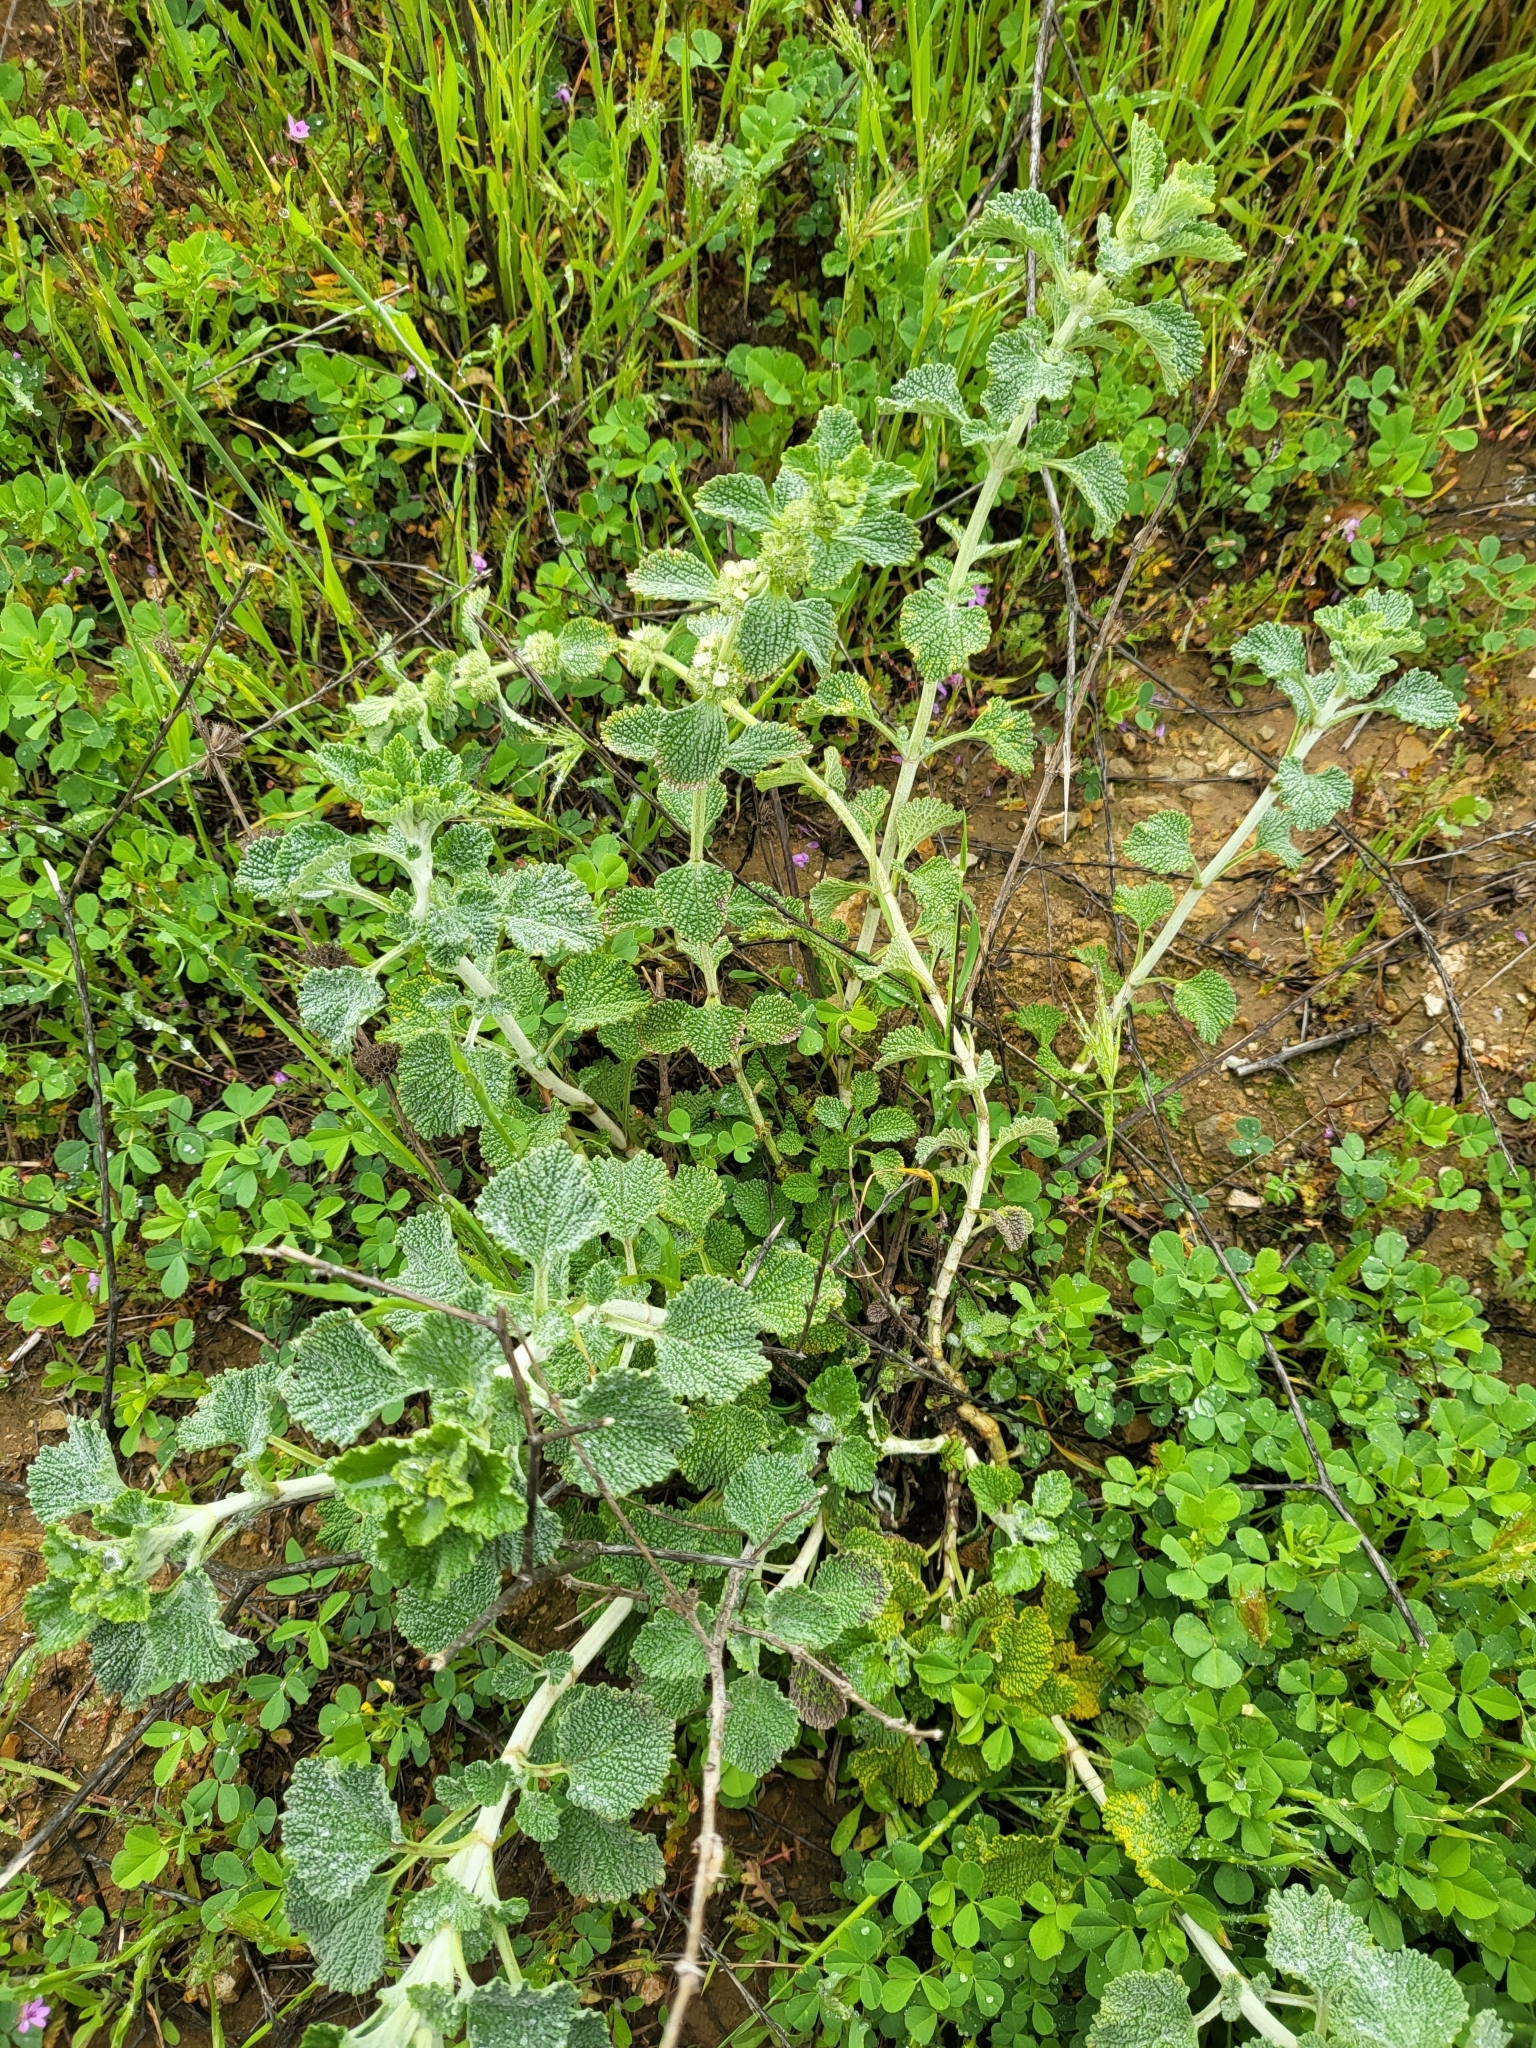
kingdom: Plantae
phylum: Tracheophyta
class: Magnoliopsida
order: Lamiales
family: Lamiaceae
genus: Marrubium
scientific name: Marrubium vulgare
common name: Horehound
